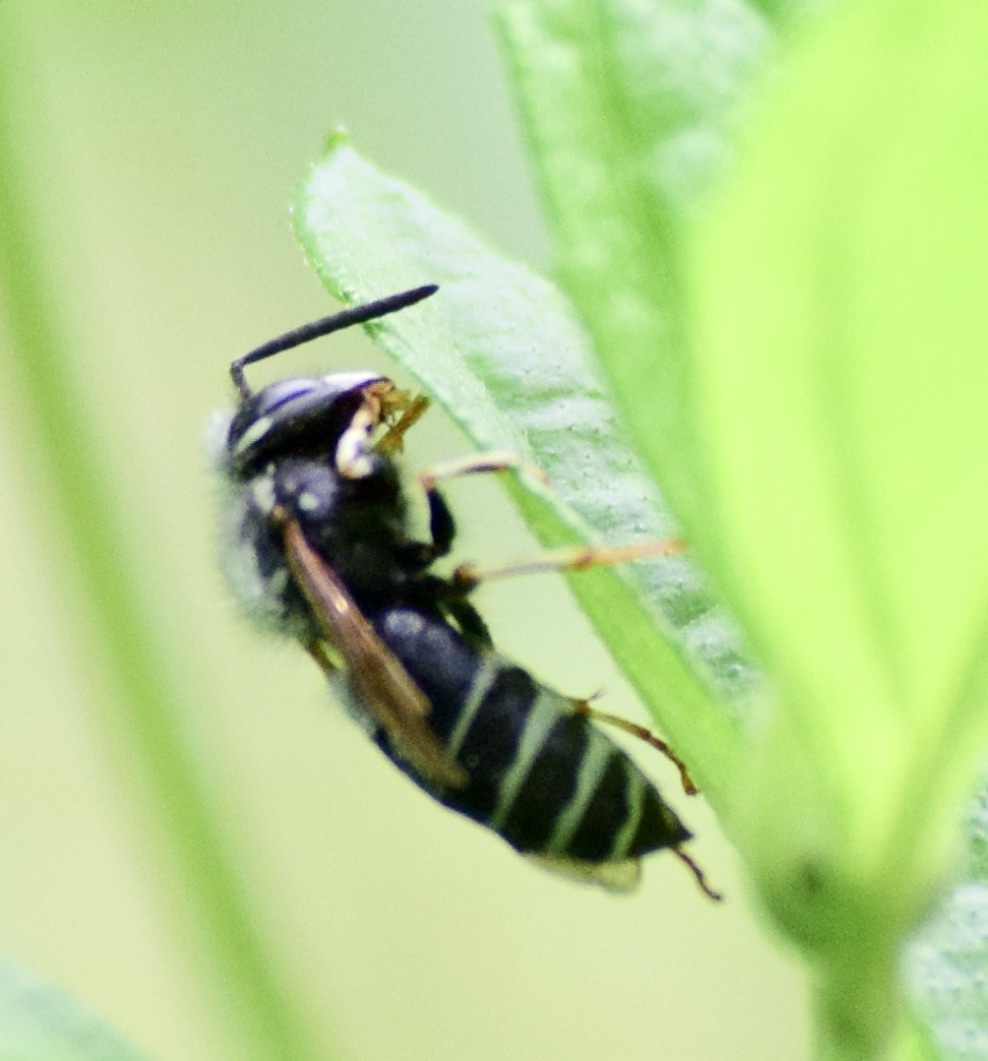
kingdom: Animalia
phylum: Arthropoda
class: Insecta
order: Hymenoptera
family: Vespidae
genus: Vespula
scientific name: Vespula consobrina
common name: Blackjacket
